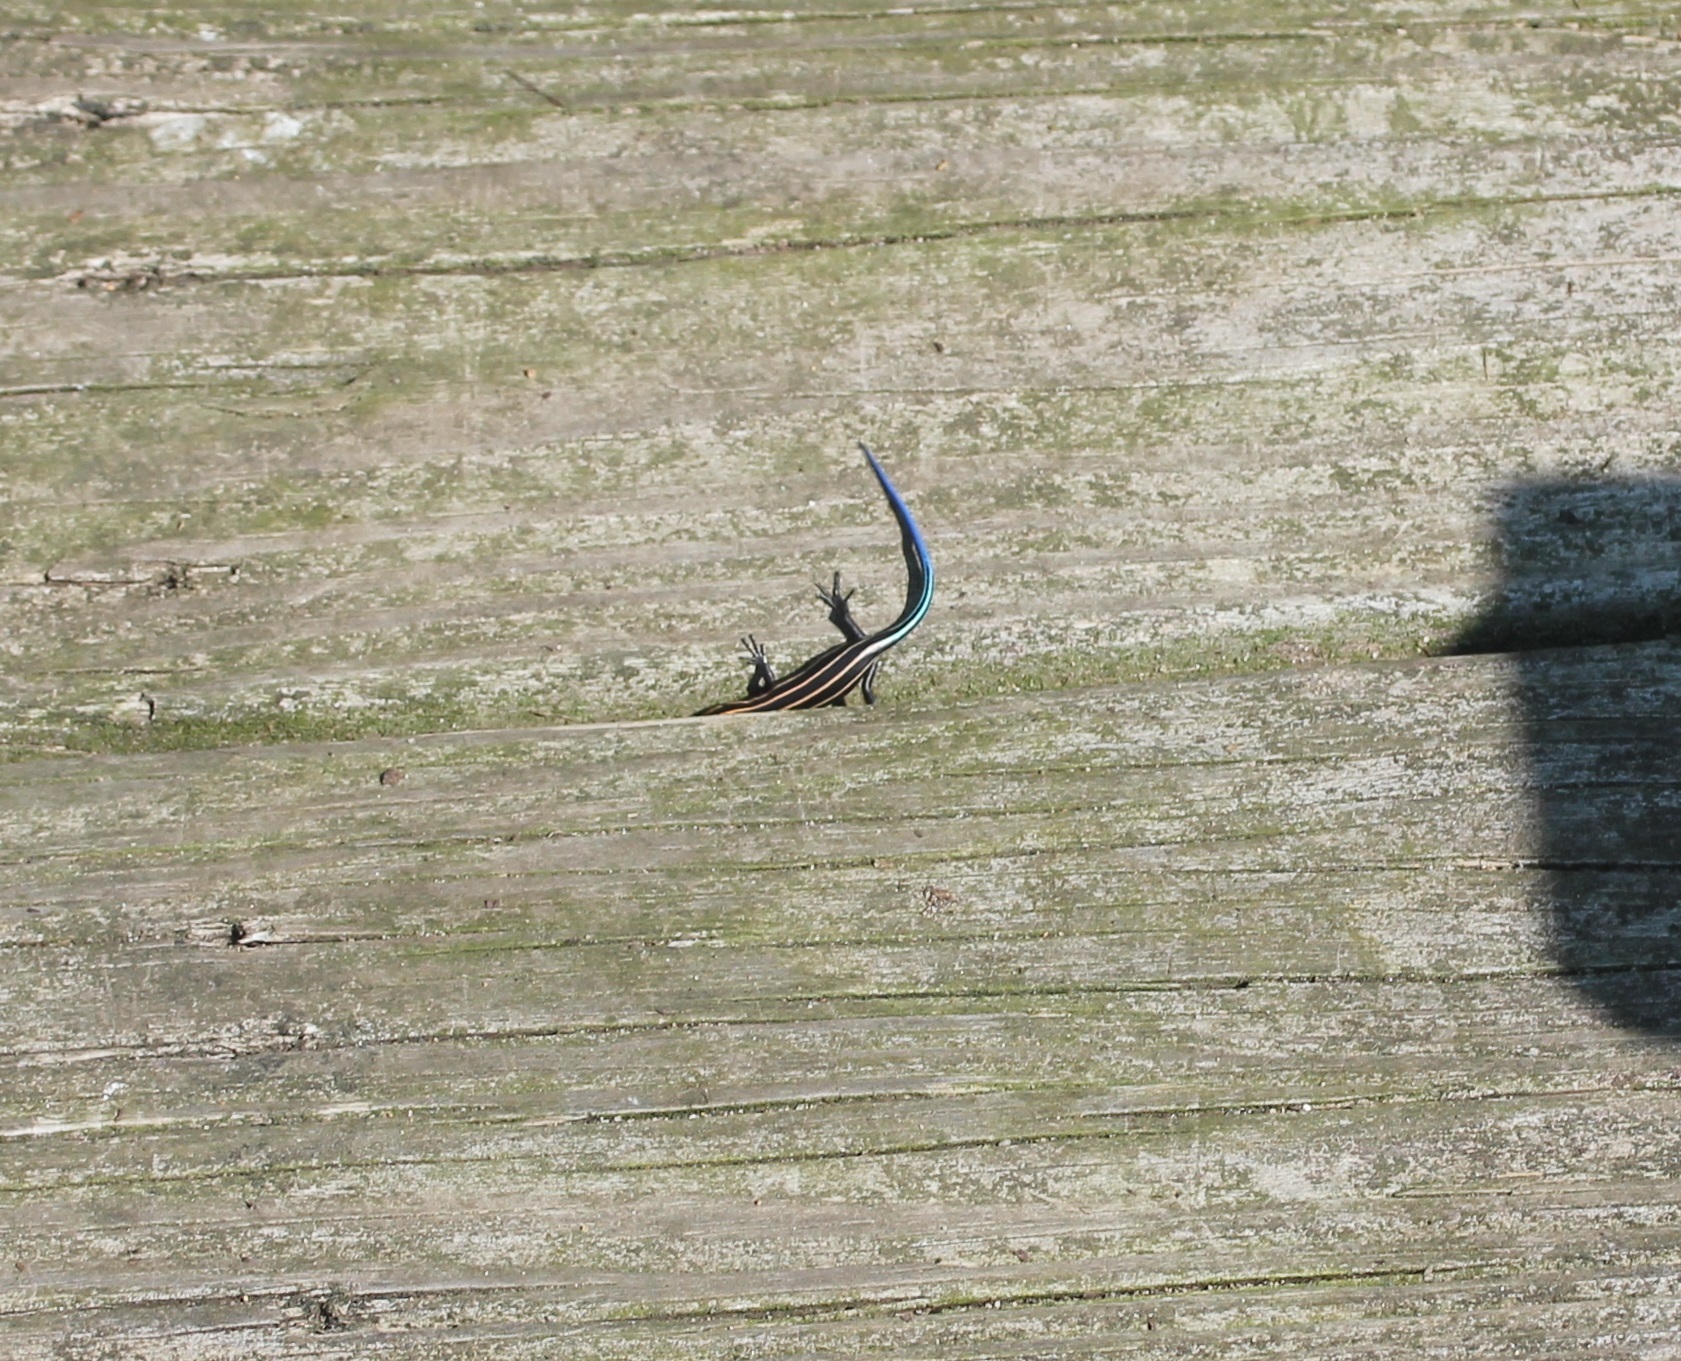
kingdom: Animalia
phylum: Chordata
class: Squamata
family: Scincidae
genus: Plestiodon
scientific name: Plestiodon fasciatus
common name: Five-lined skink
